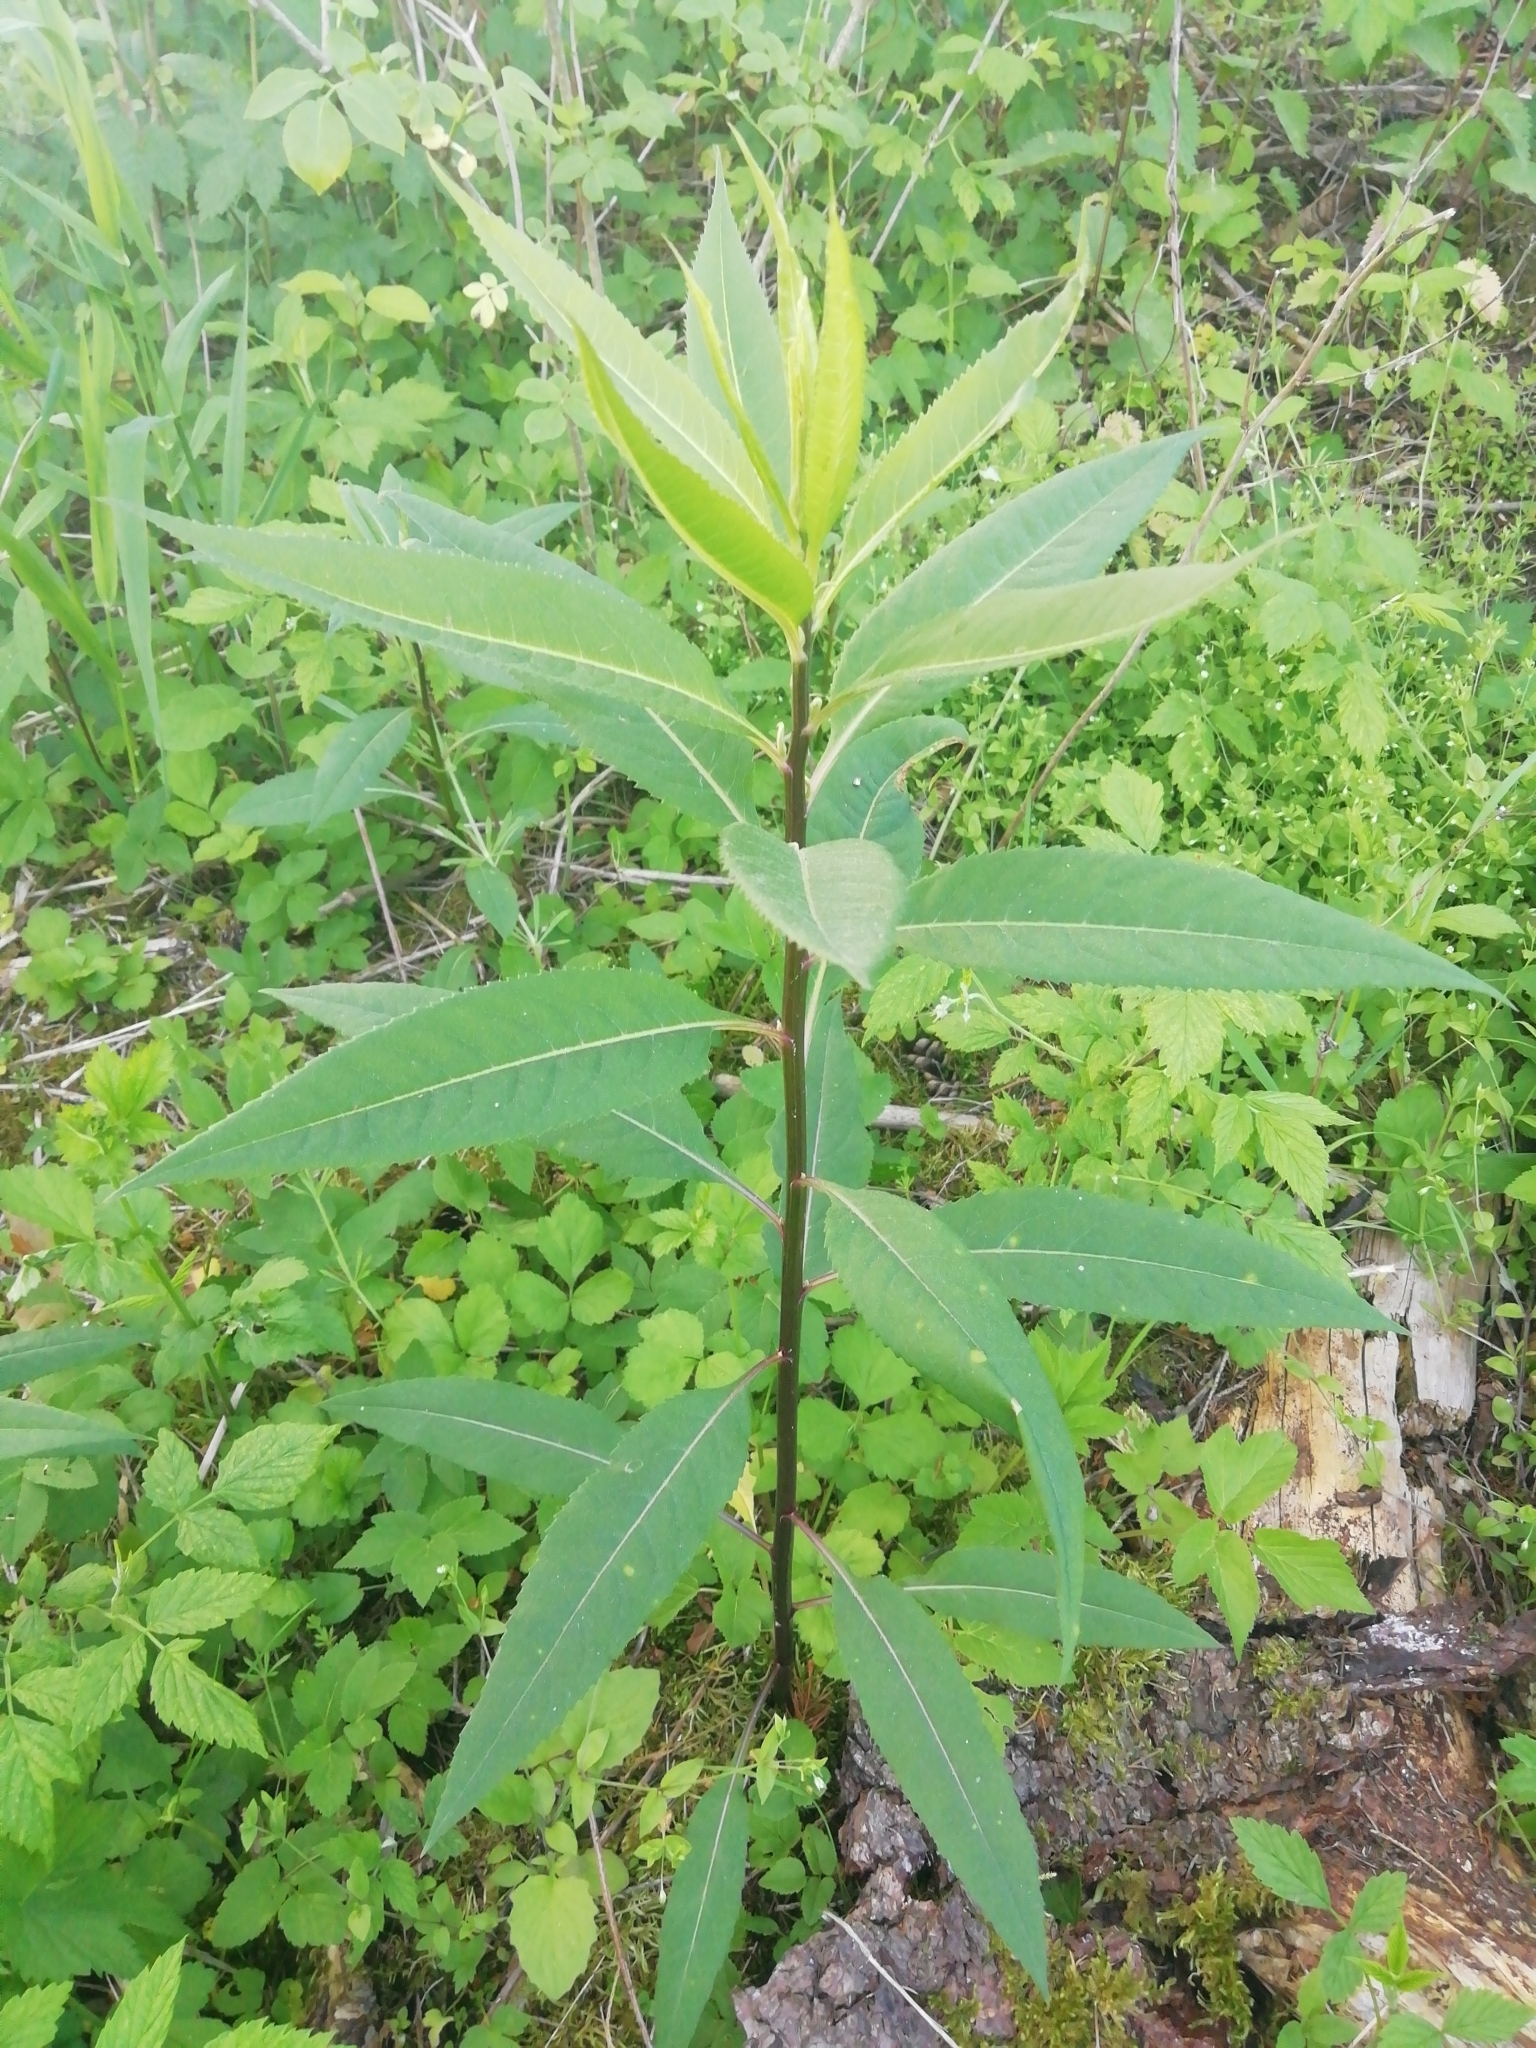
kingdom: Plantae
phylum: Tracheophyta
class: Magnoliopsida
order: Asterales
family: Asteraceae
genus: Senecio
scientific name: Senecio ovatus
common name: Wood ragwort
